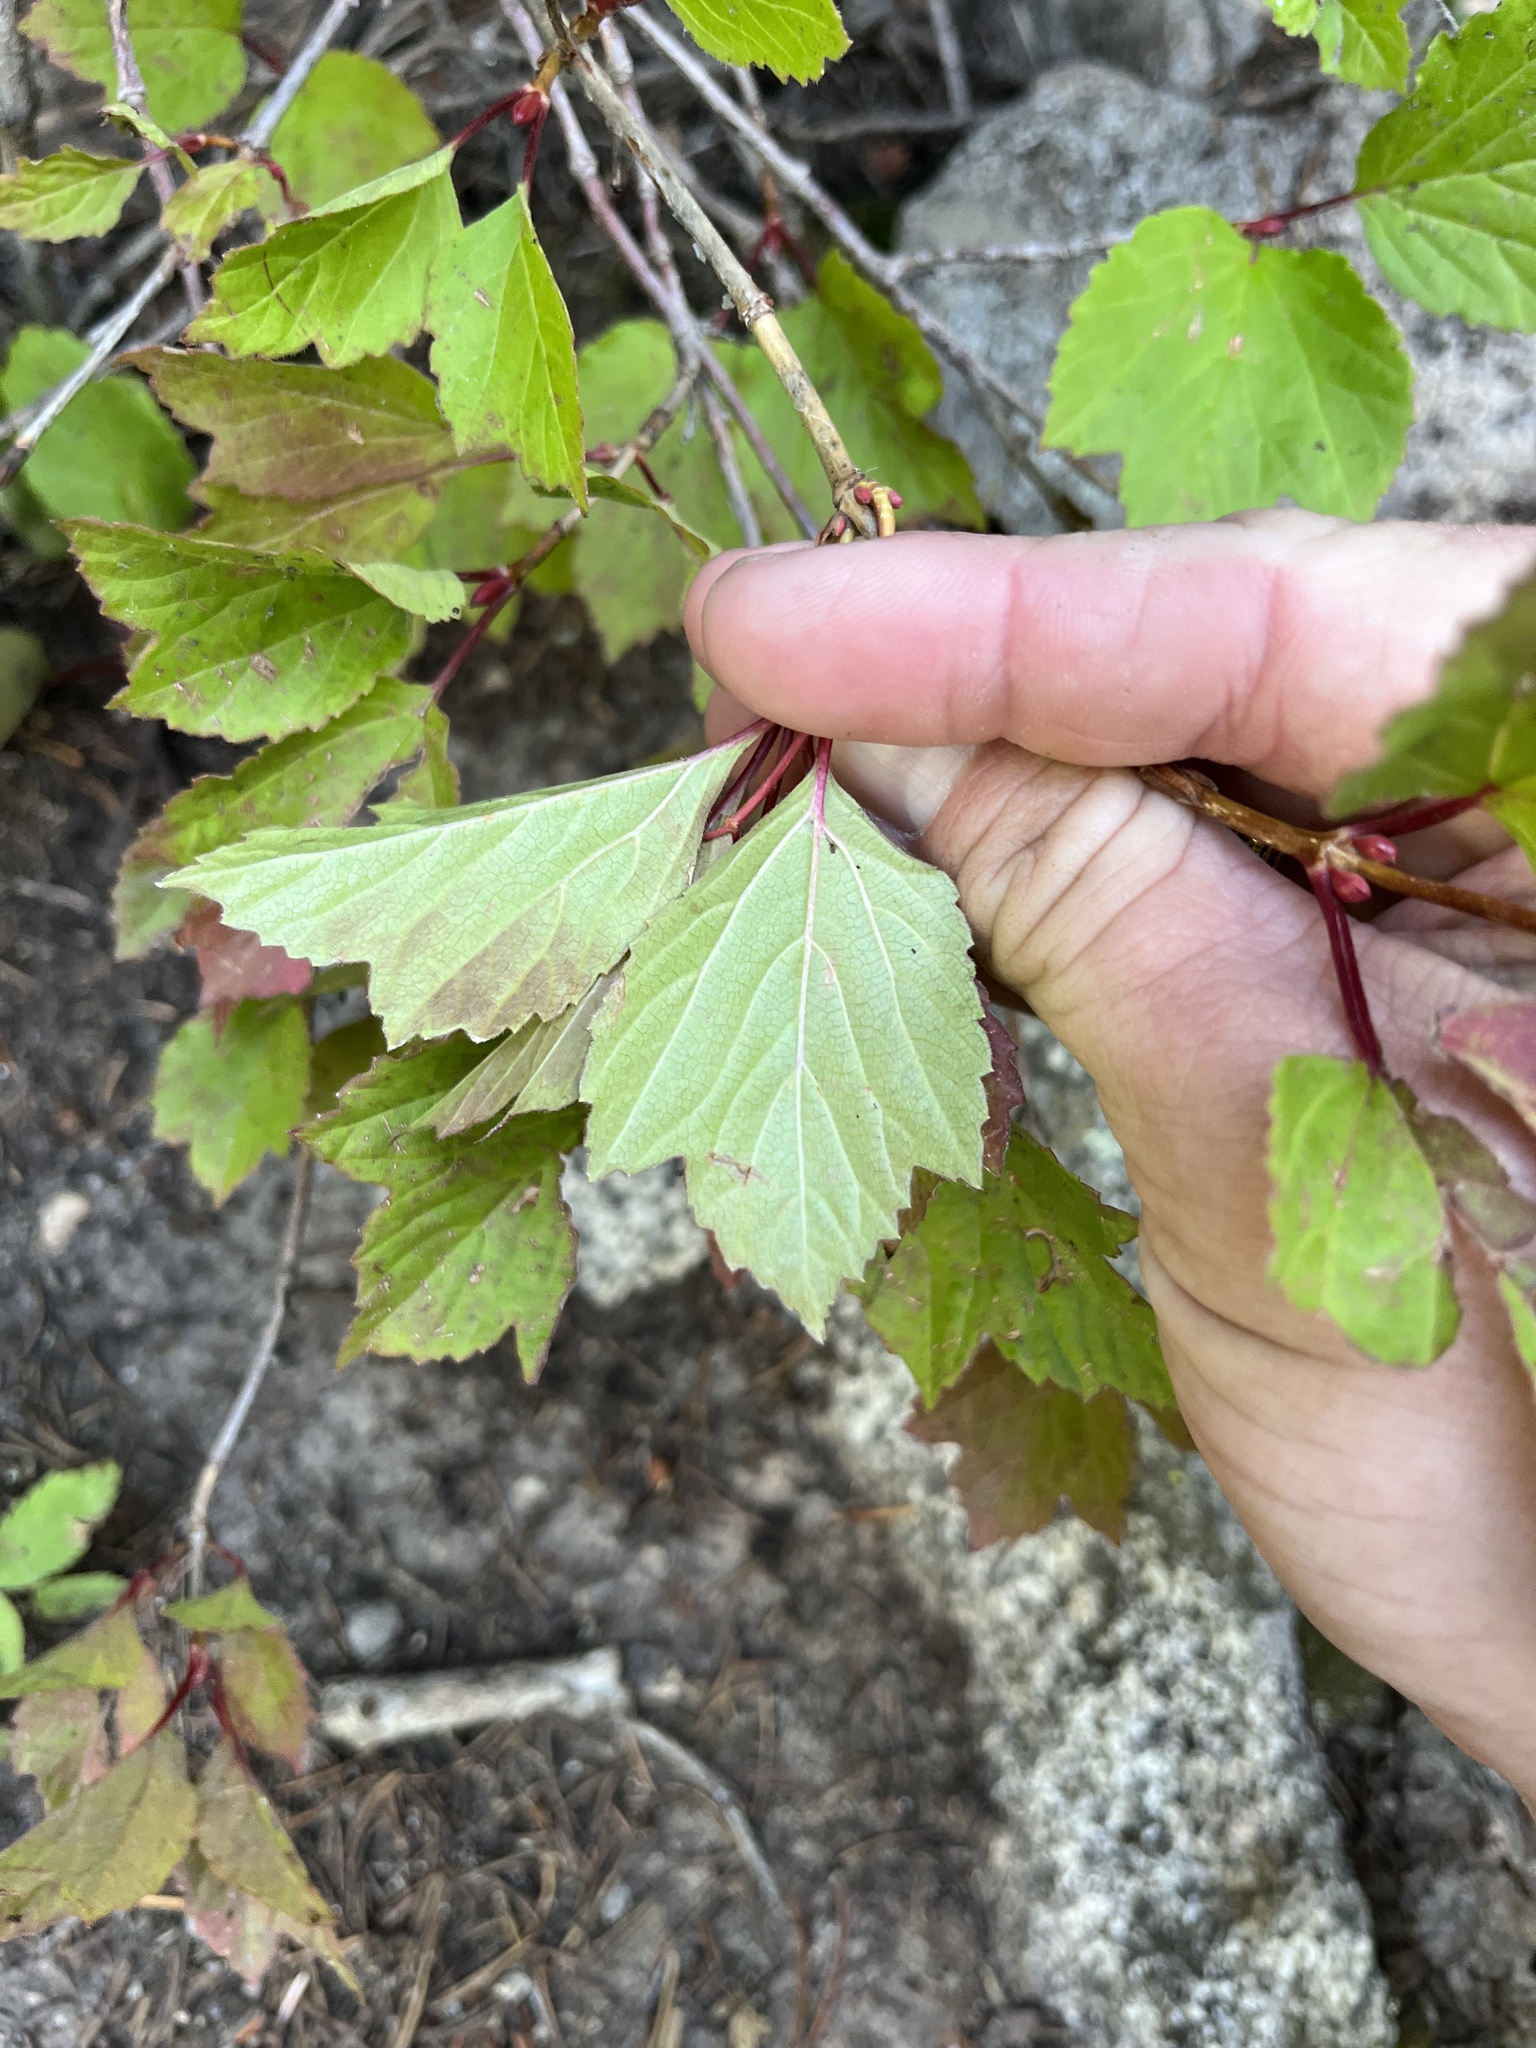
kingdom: Plantae
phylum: Tracheophyta
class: Magnoliopsida
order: Dipsacales
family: Viburnaceae
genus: Viburnum
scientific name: Viburnum edule
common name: Mooseberry
